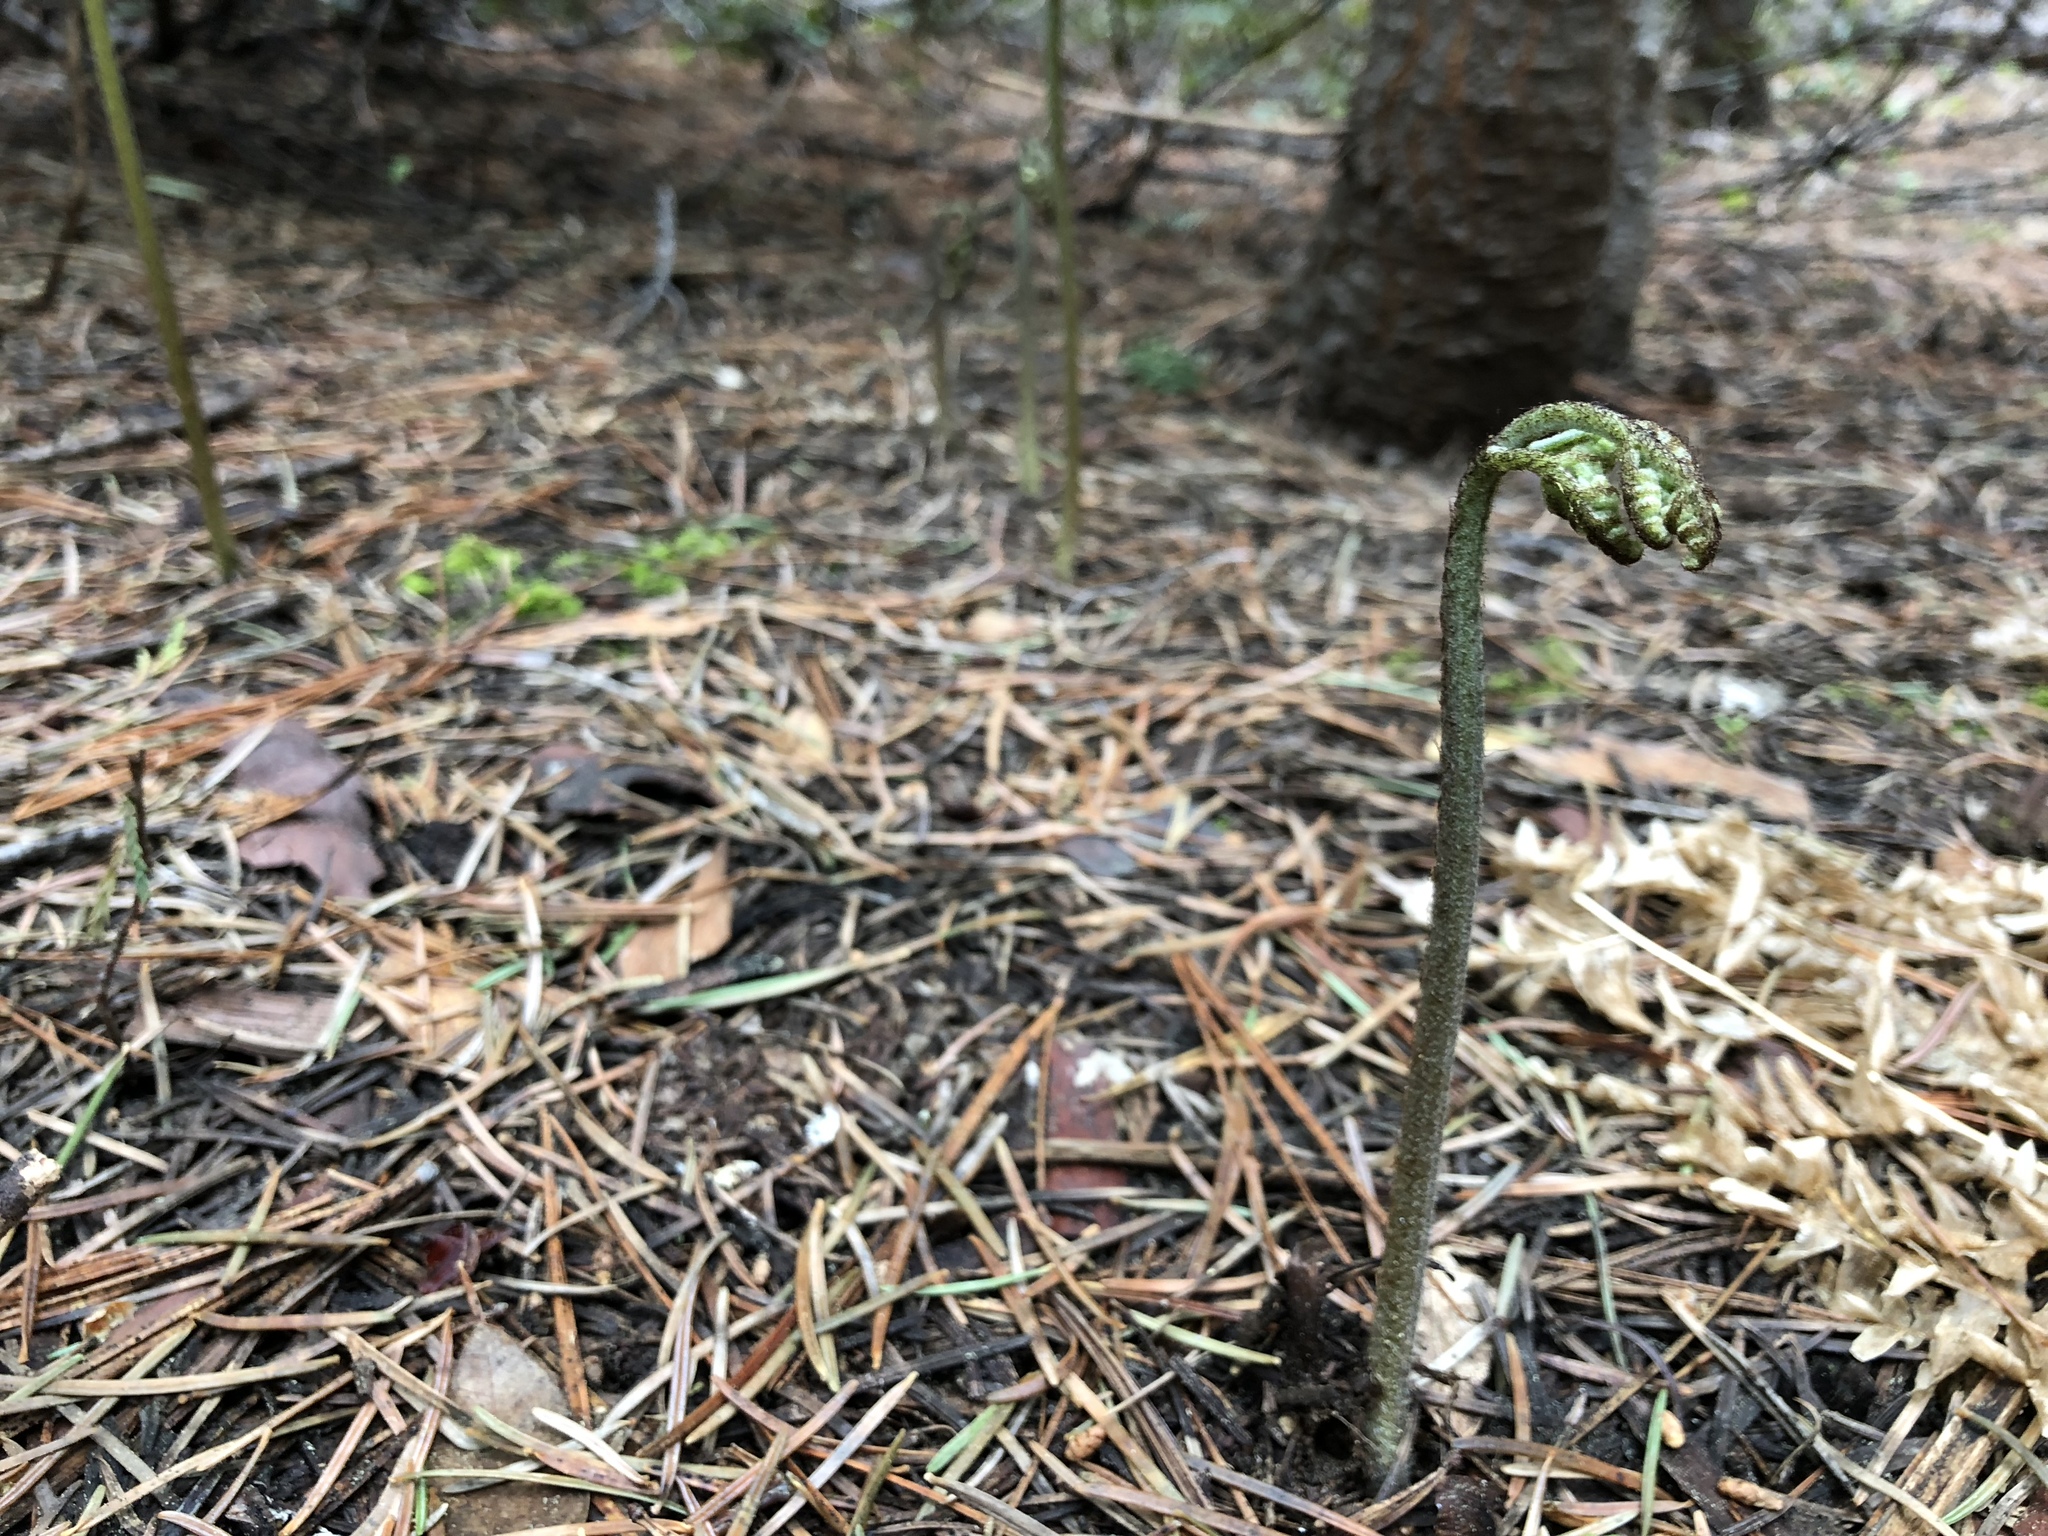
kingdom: Plantae
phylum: Tracheophyta
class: Polypodiopsida
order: Polypodiales
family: Dennstaedtiaceae
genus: Pteridium
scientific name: Pteridium aquilinum
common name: Bracken
